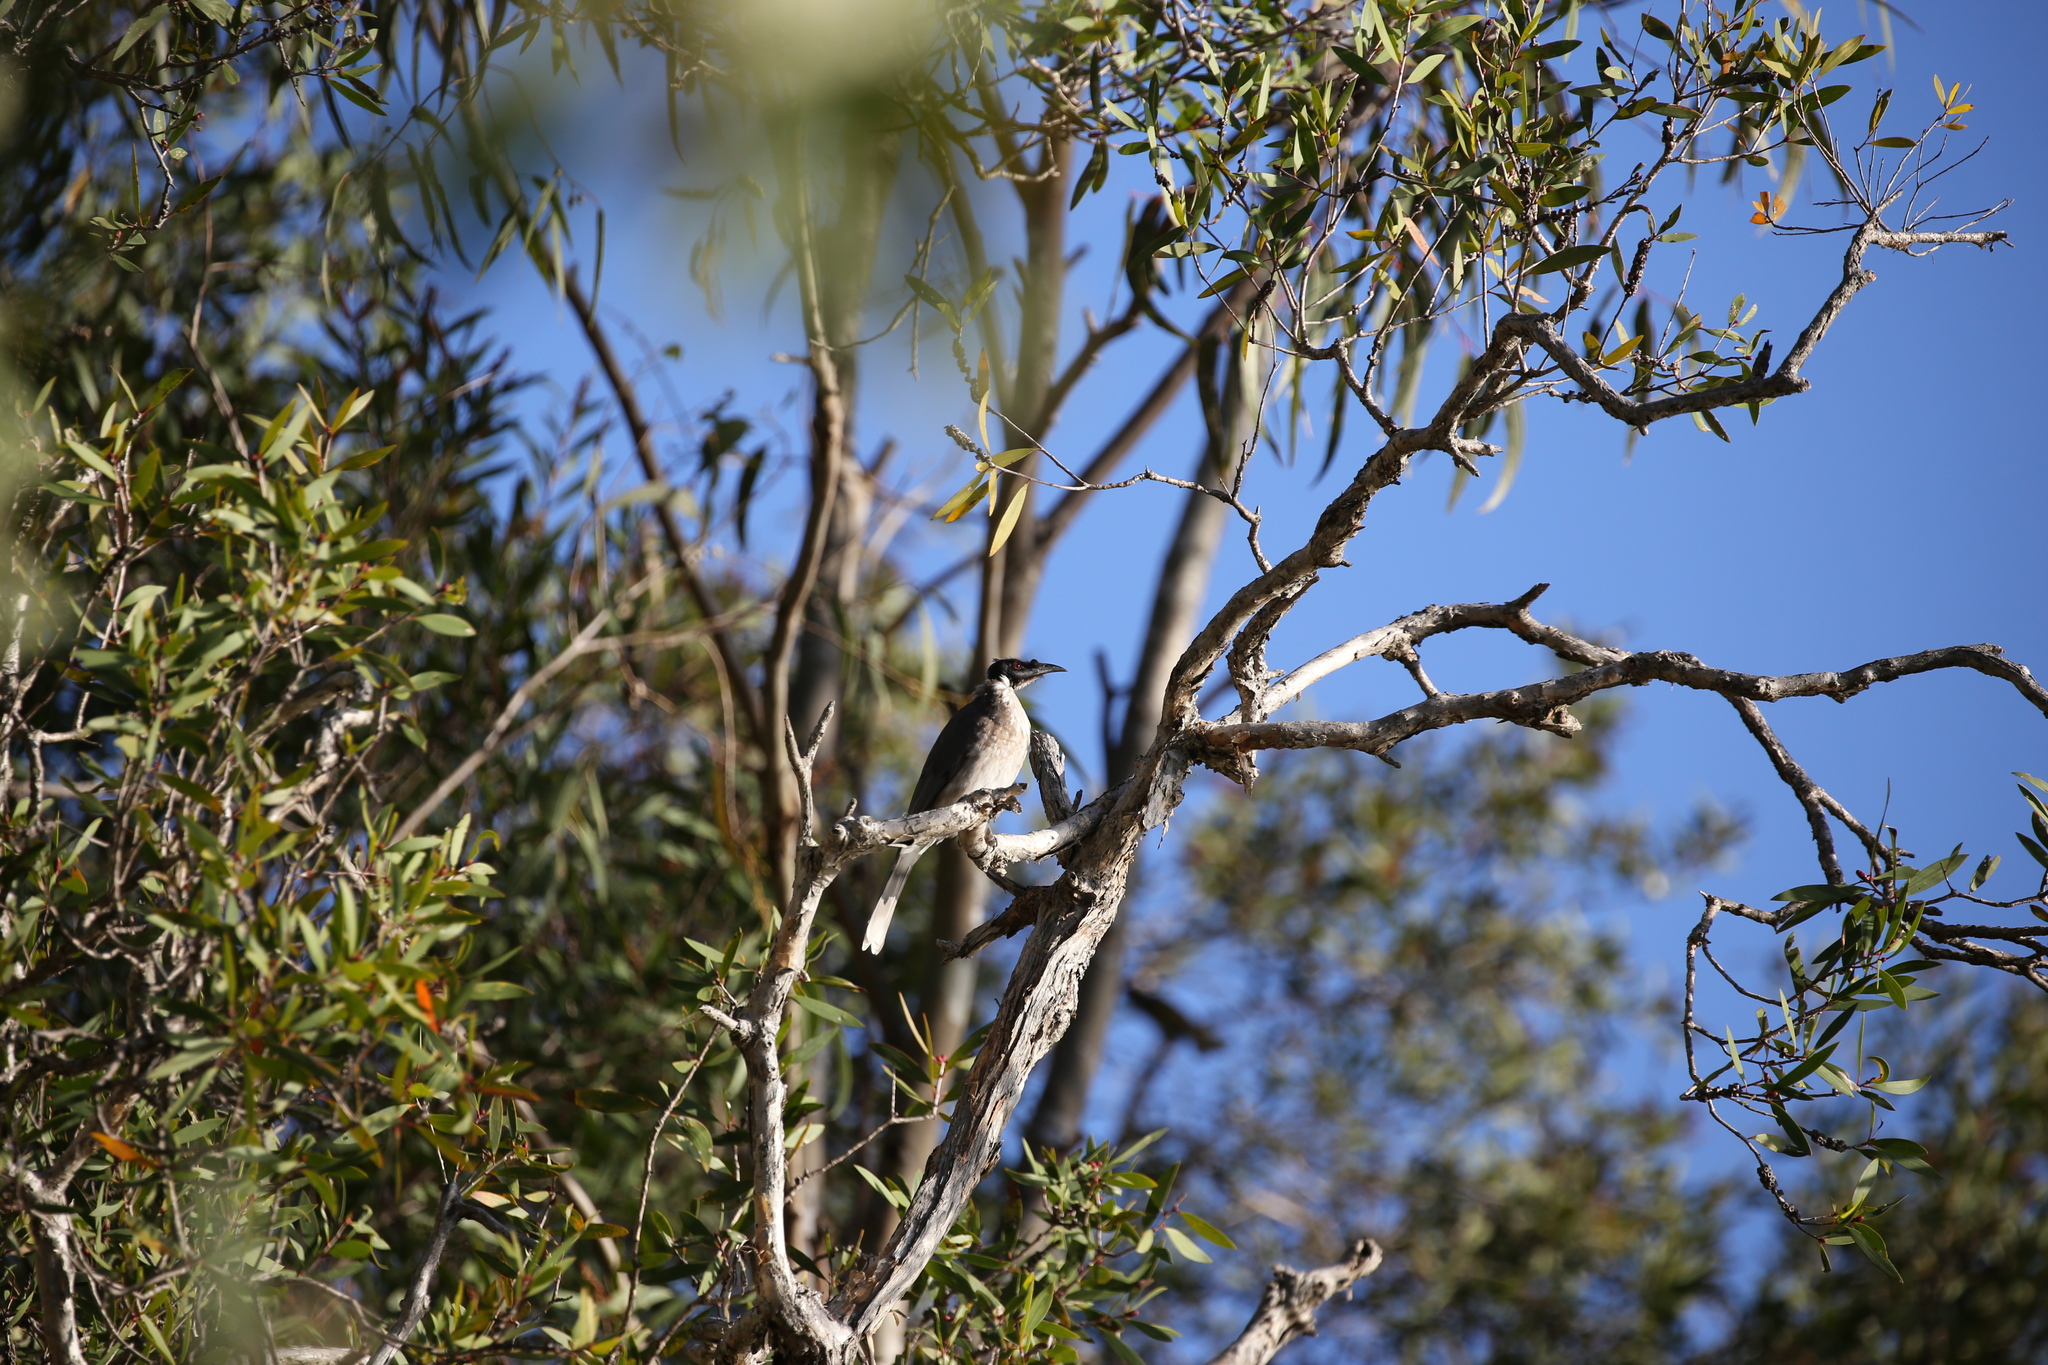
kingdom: Animalia
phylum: Chordata
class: Aves
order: Passeriformes
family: Meliphagidae
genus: Philemon
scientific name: Philemon corniculatus
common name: Noisy friarbird
